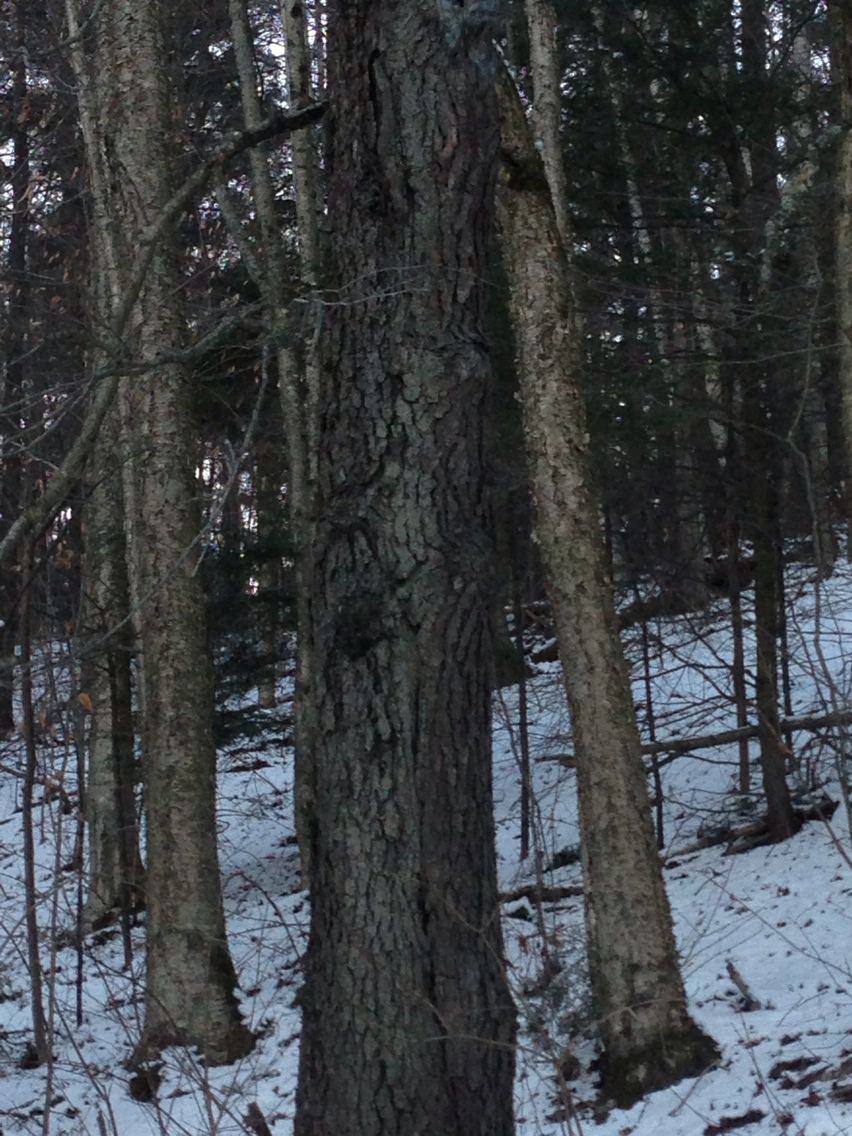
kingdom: Plantae
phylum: Tracheophyta
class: Magnoliopsida
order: Fagales
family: Betulaceae
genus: Betula
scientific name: Betula alleghaniensis
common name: Yellow birch
